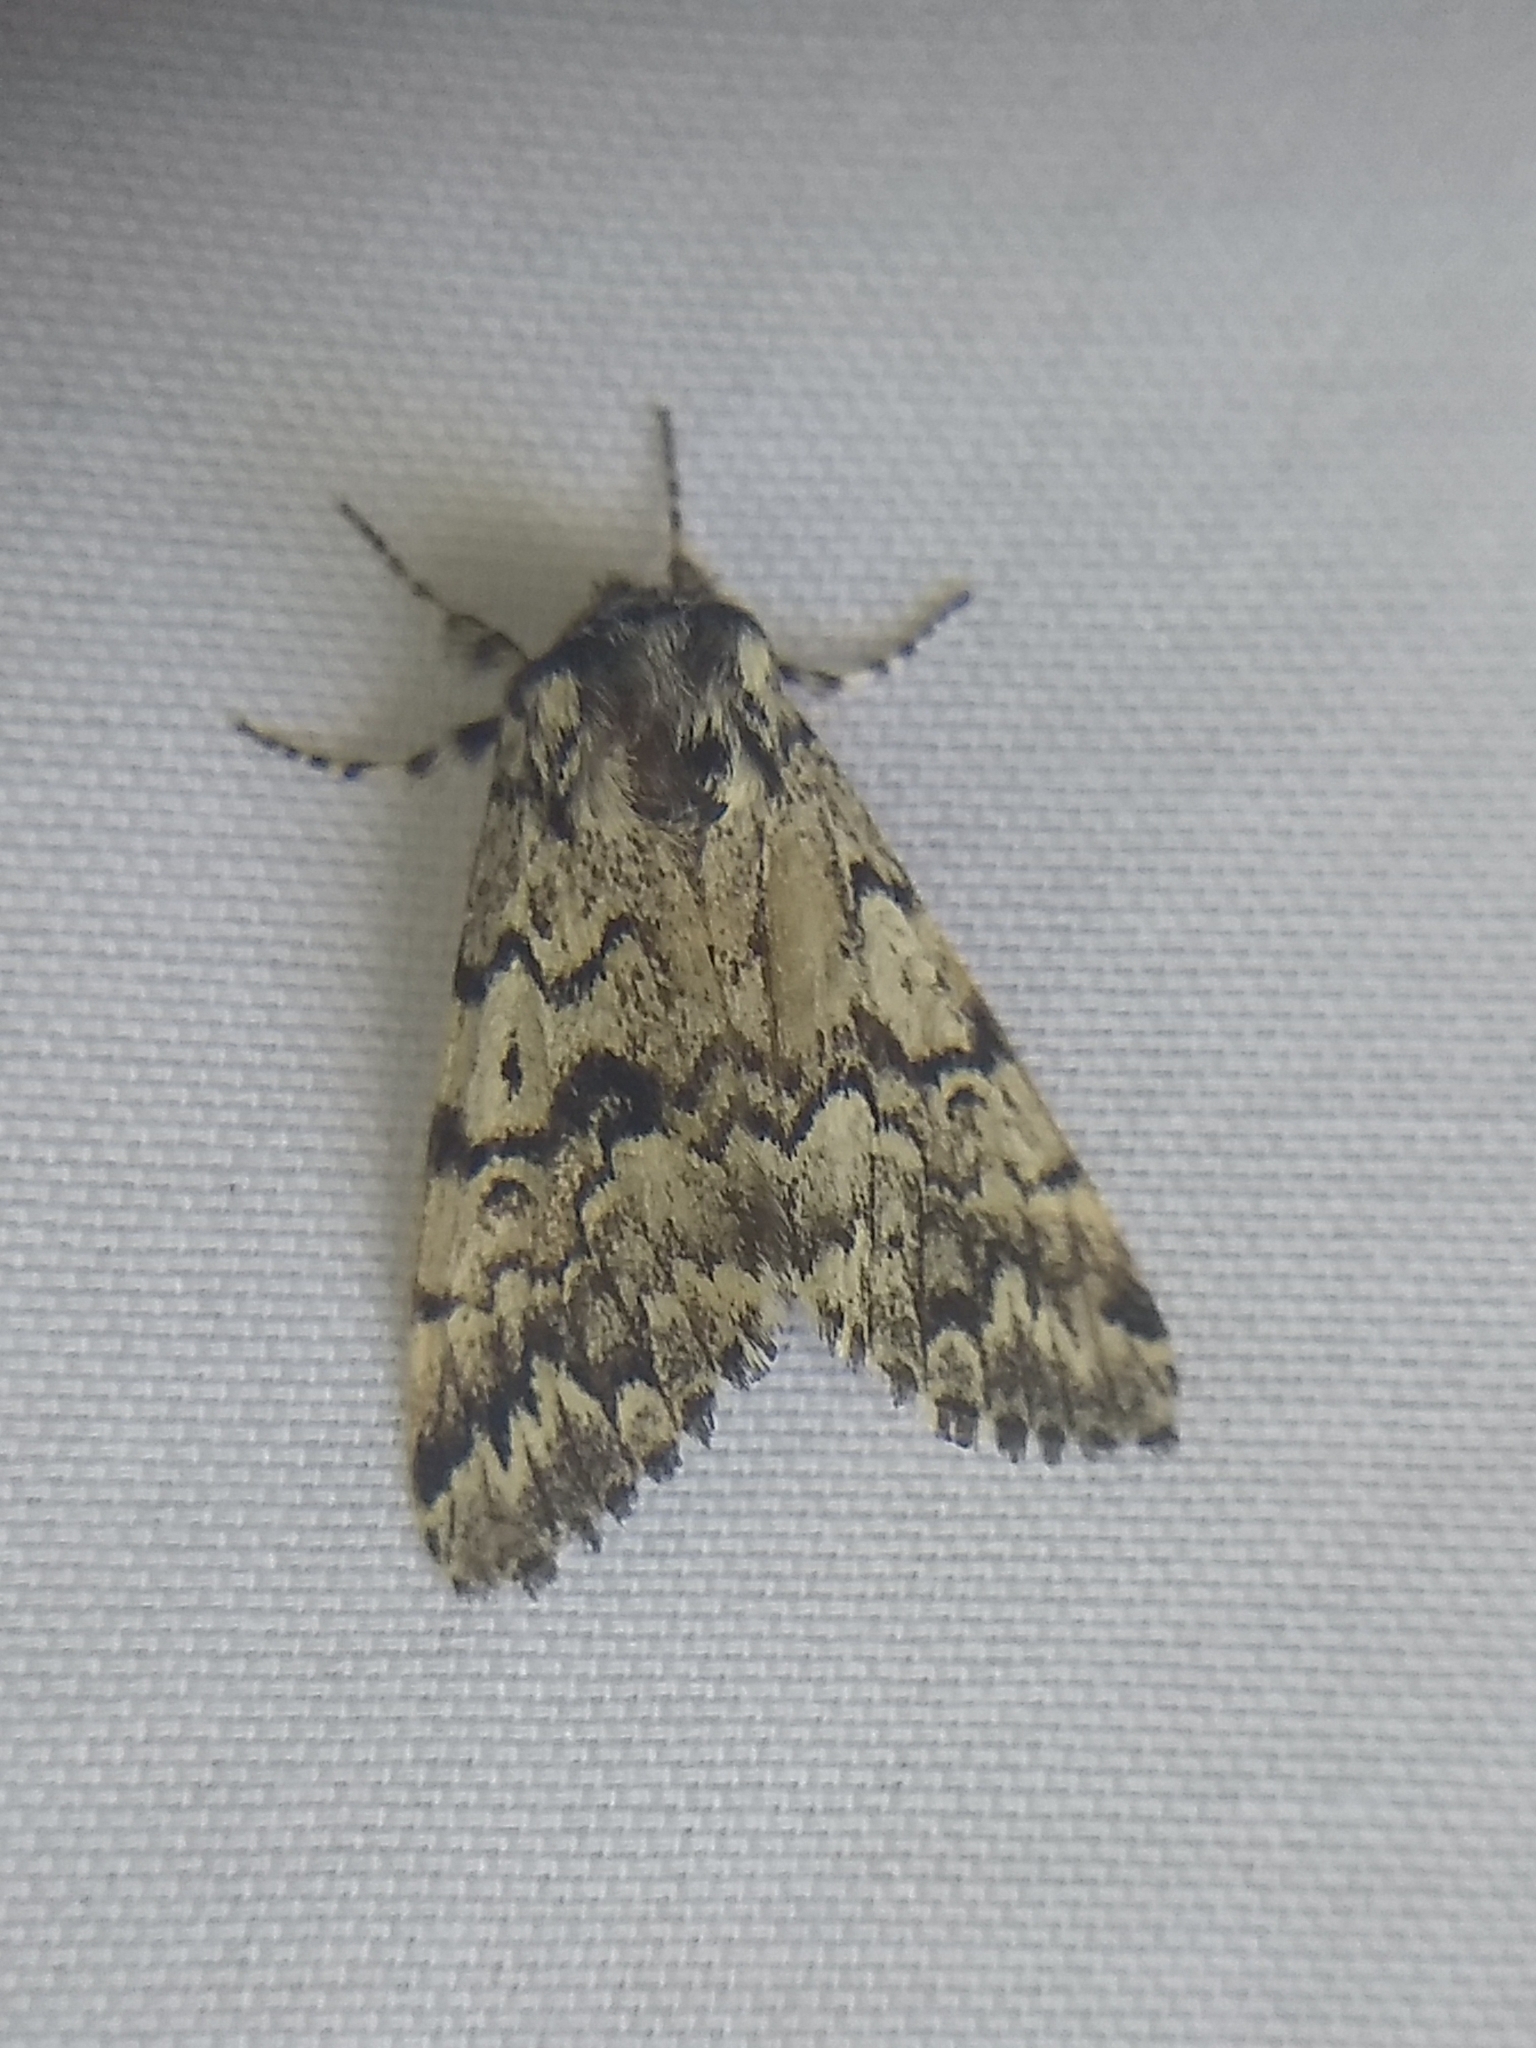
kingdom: Animalia
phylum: Arthropoda
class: Insecta
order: Lepidoptera
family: Noctuidae
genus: Panthea
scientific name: Panthea acronyctoides
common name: Black zigzag moth
